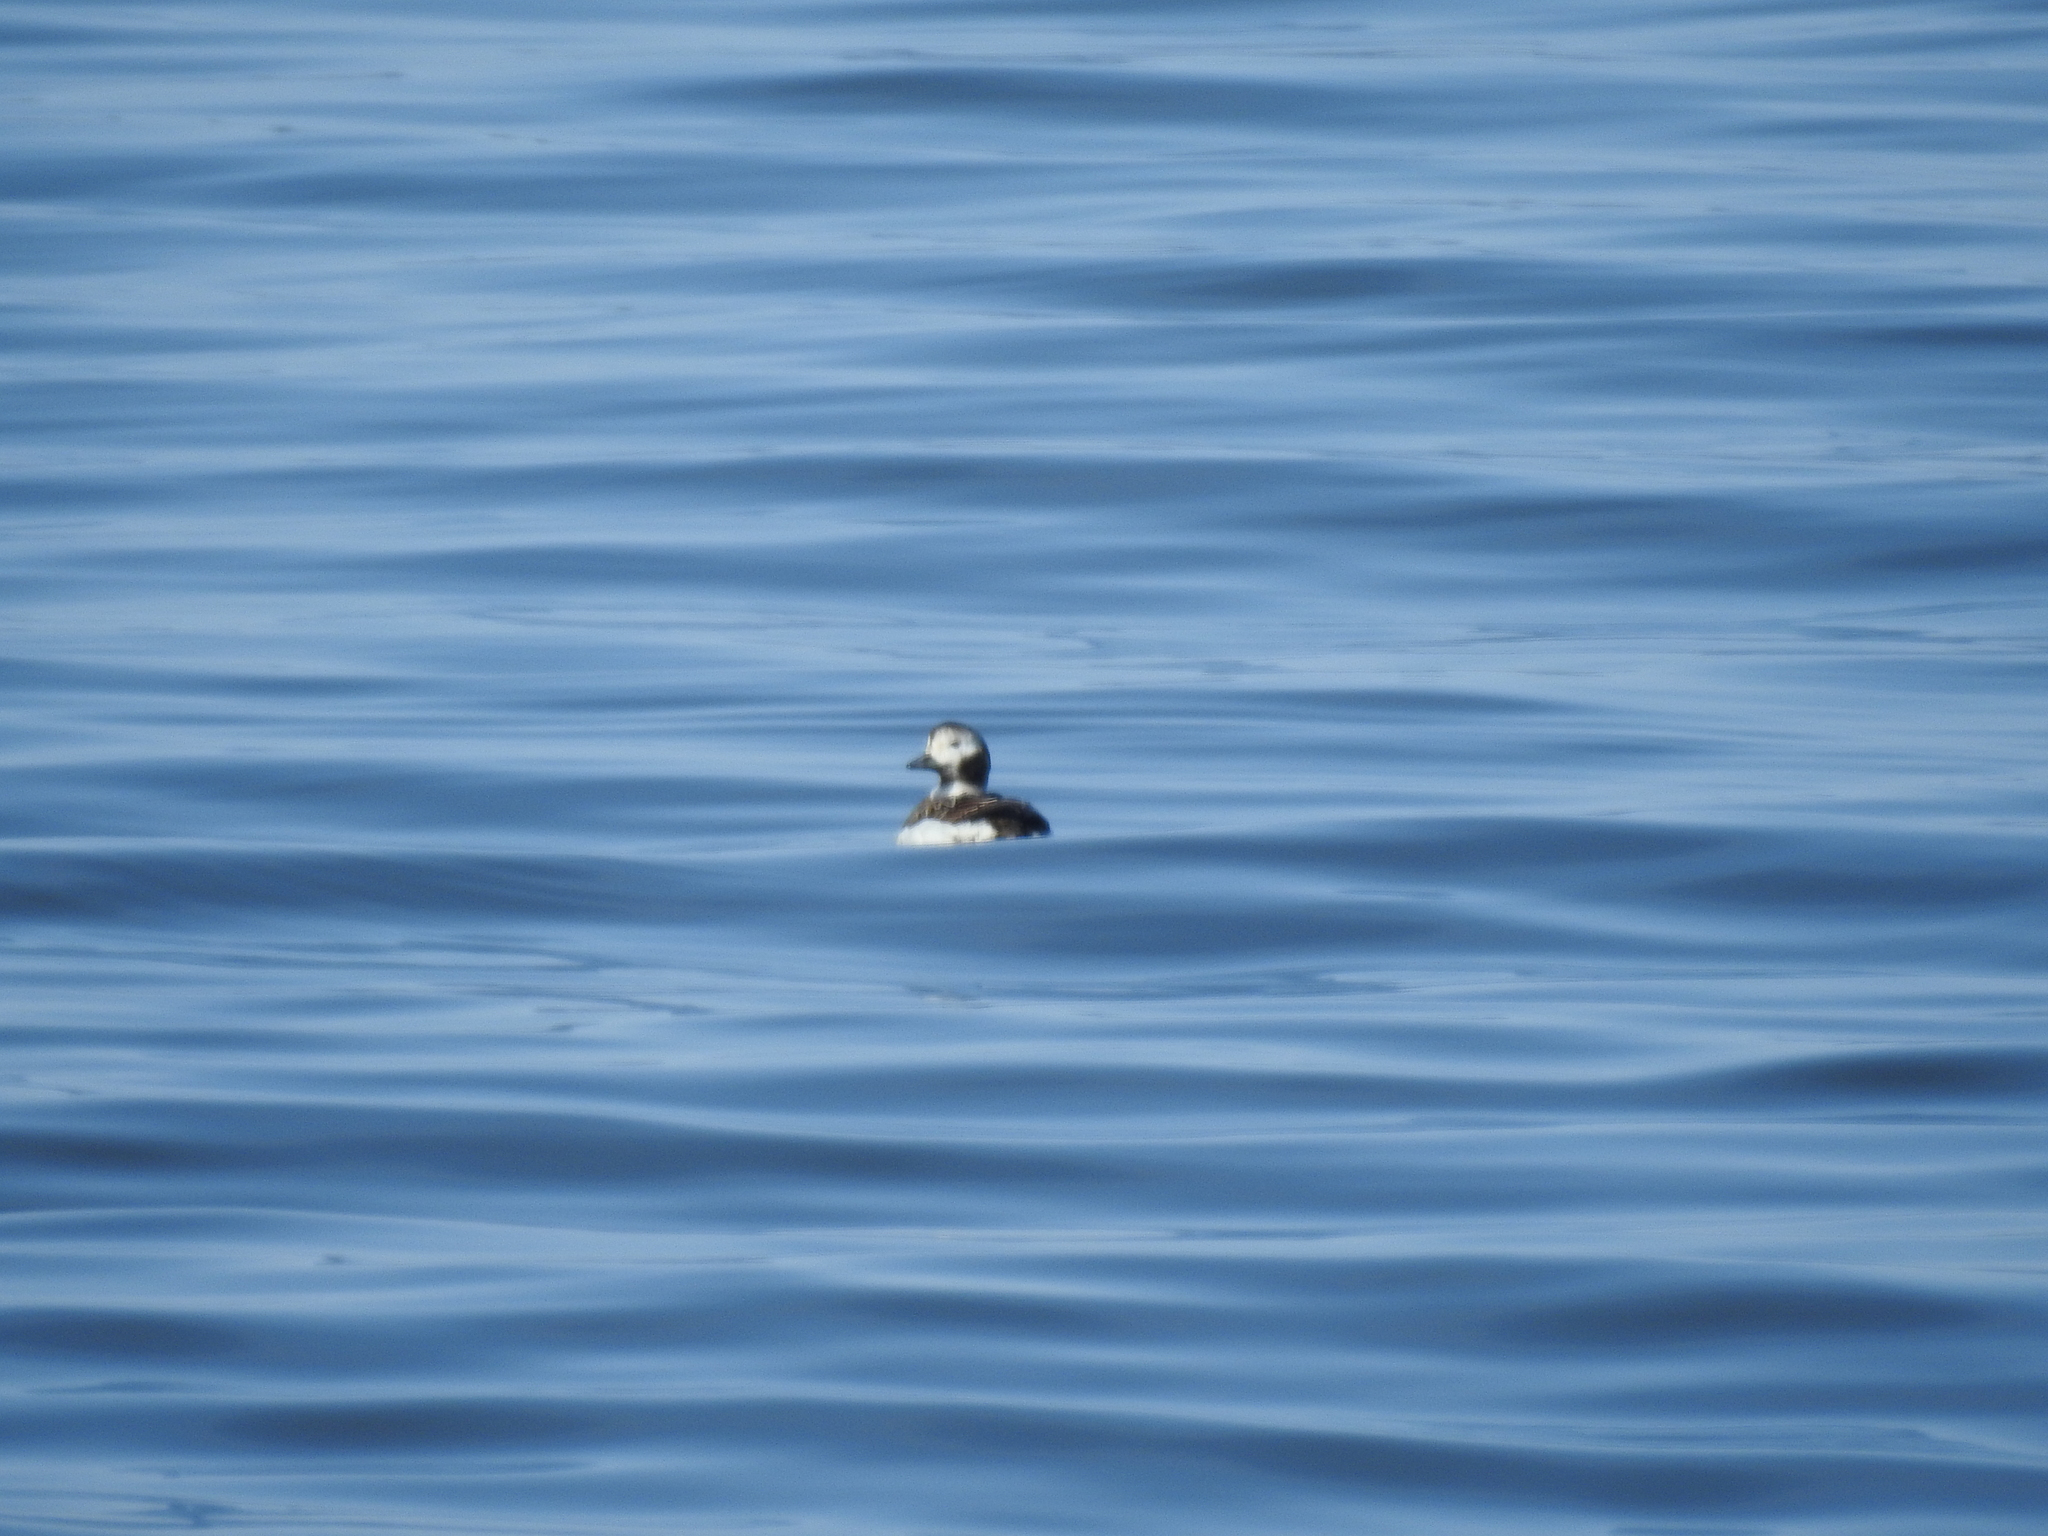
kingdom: Animalia
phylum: Chordata
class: Aves
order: Anseriformes
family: Anatidae
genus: Clangula
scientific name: Clangula hyemalis
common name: Long-tailed duck
